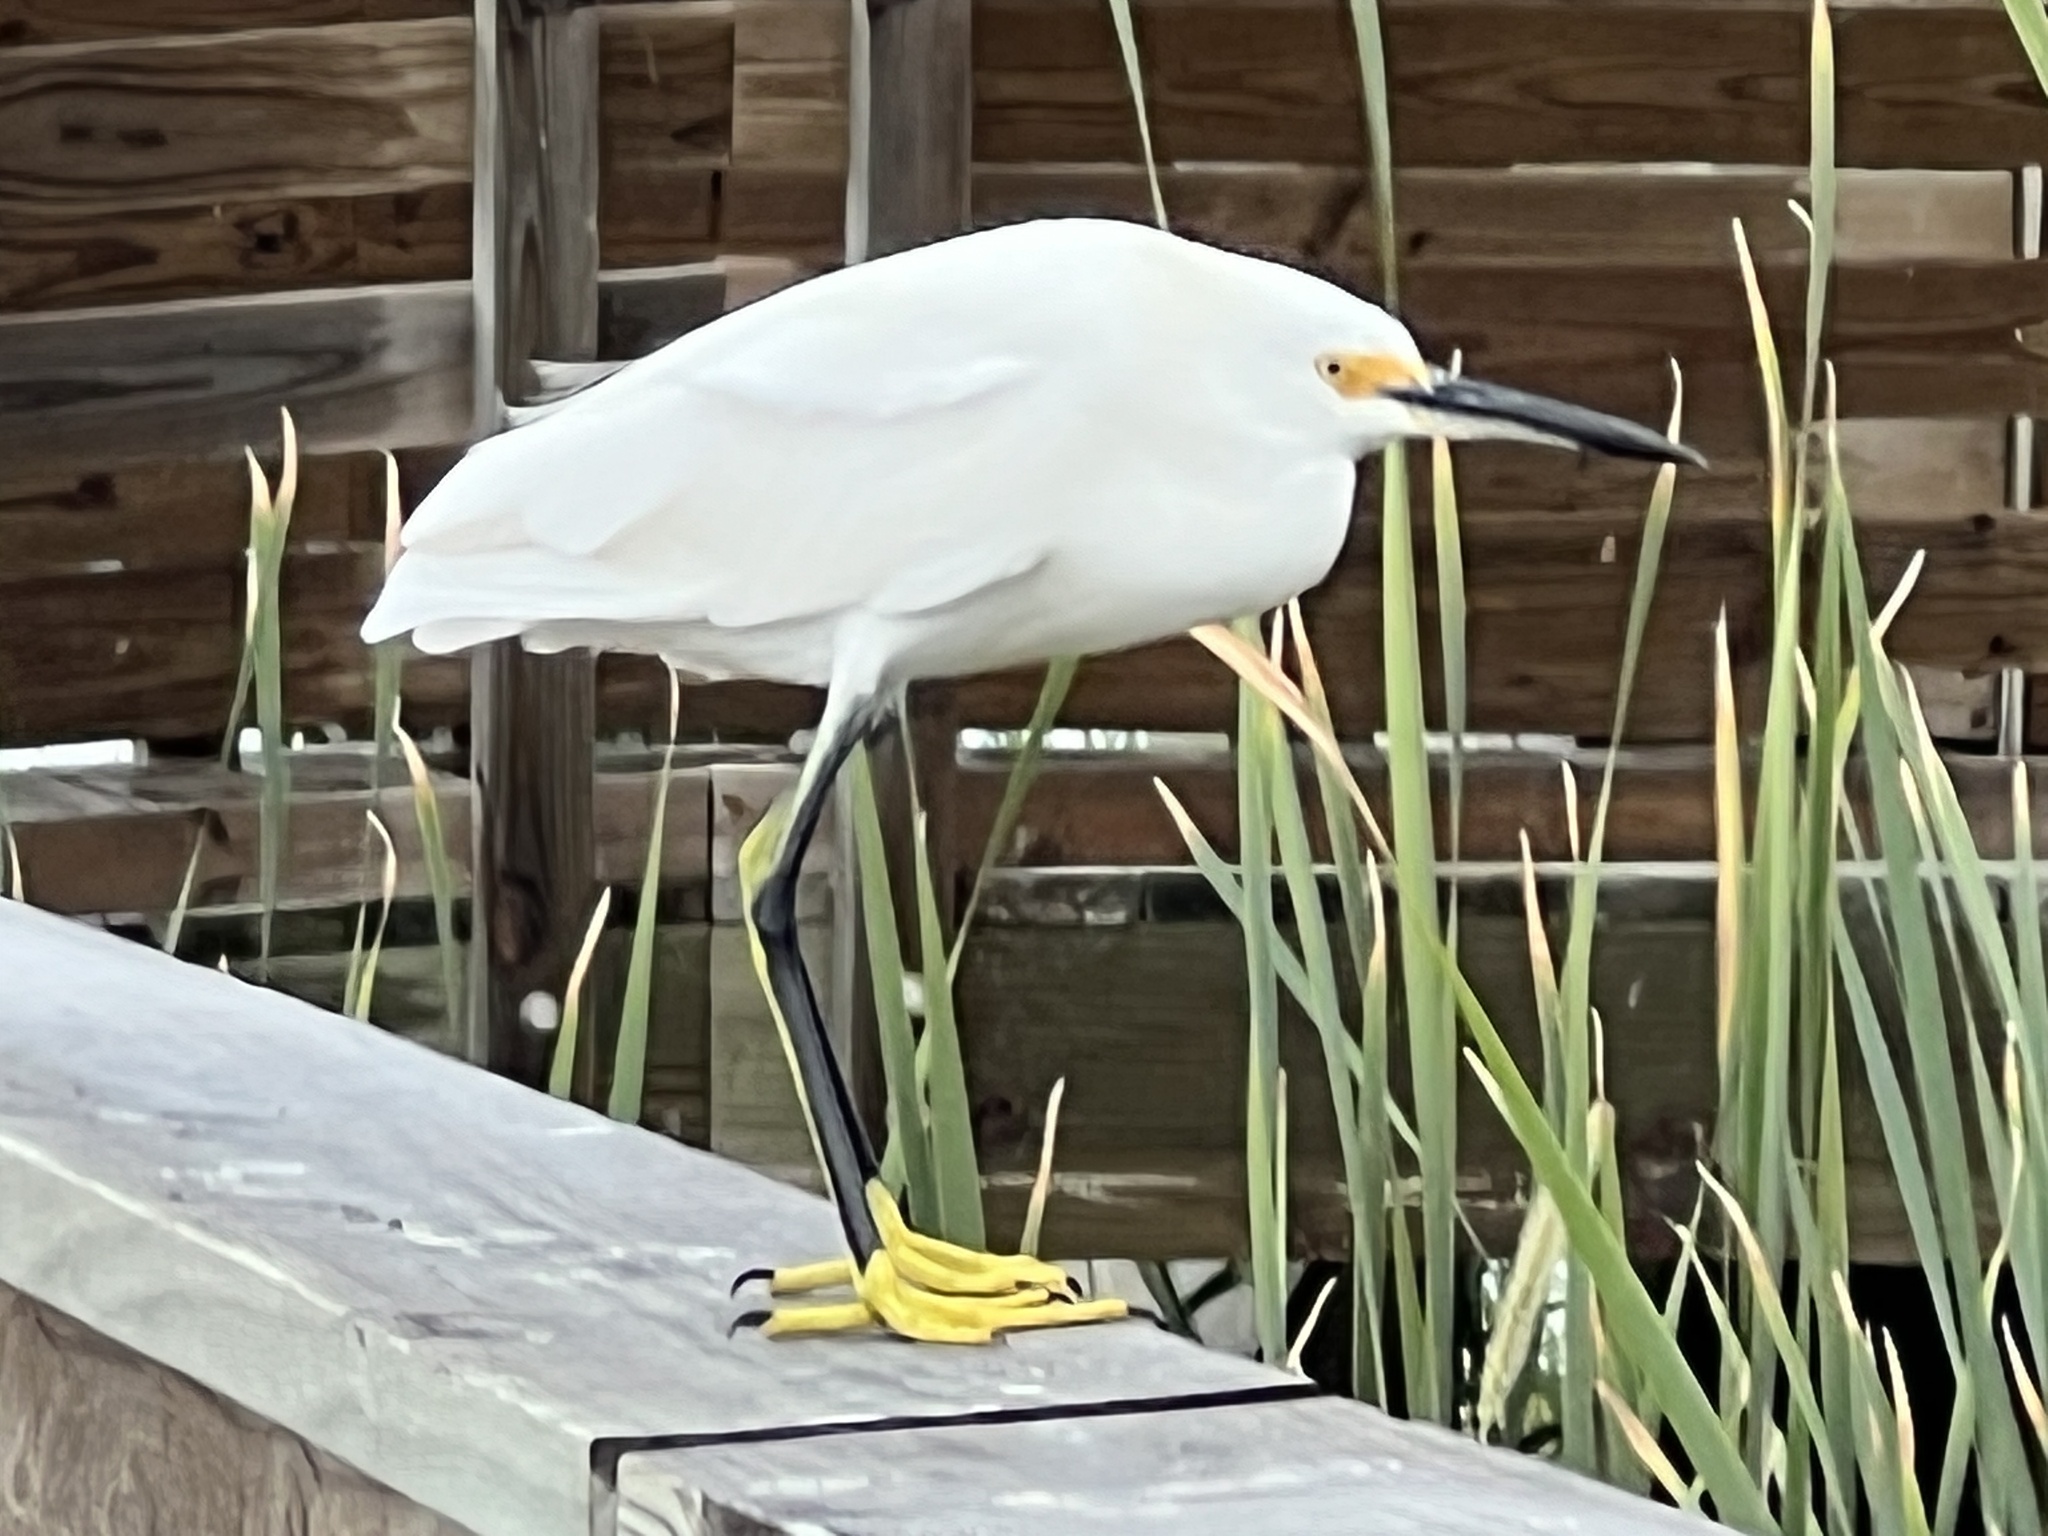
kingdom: Animalia
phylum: Chordata
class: Aves
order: Pelecaniformes
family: Ardeidae
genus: Egretta
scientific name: Egretta thula
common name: Snowy egret
